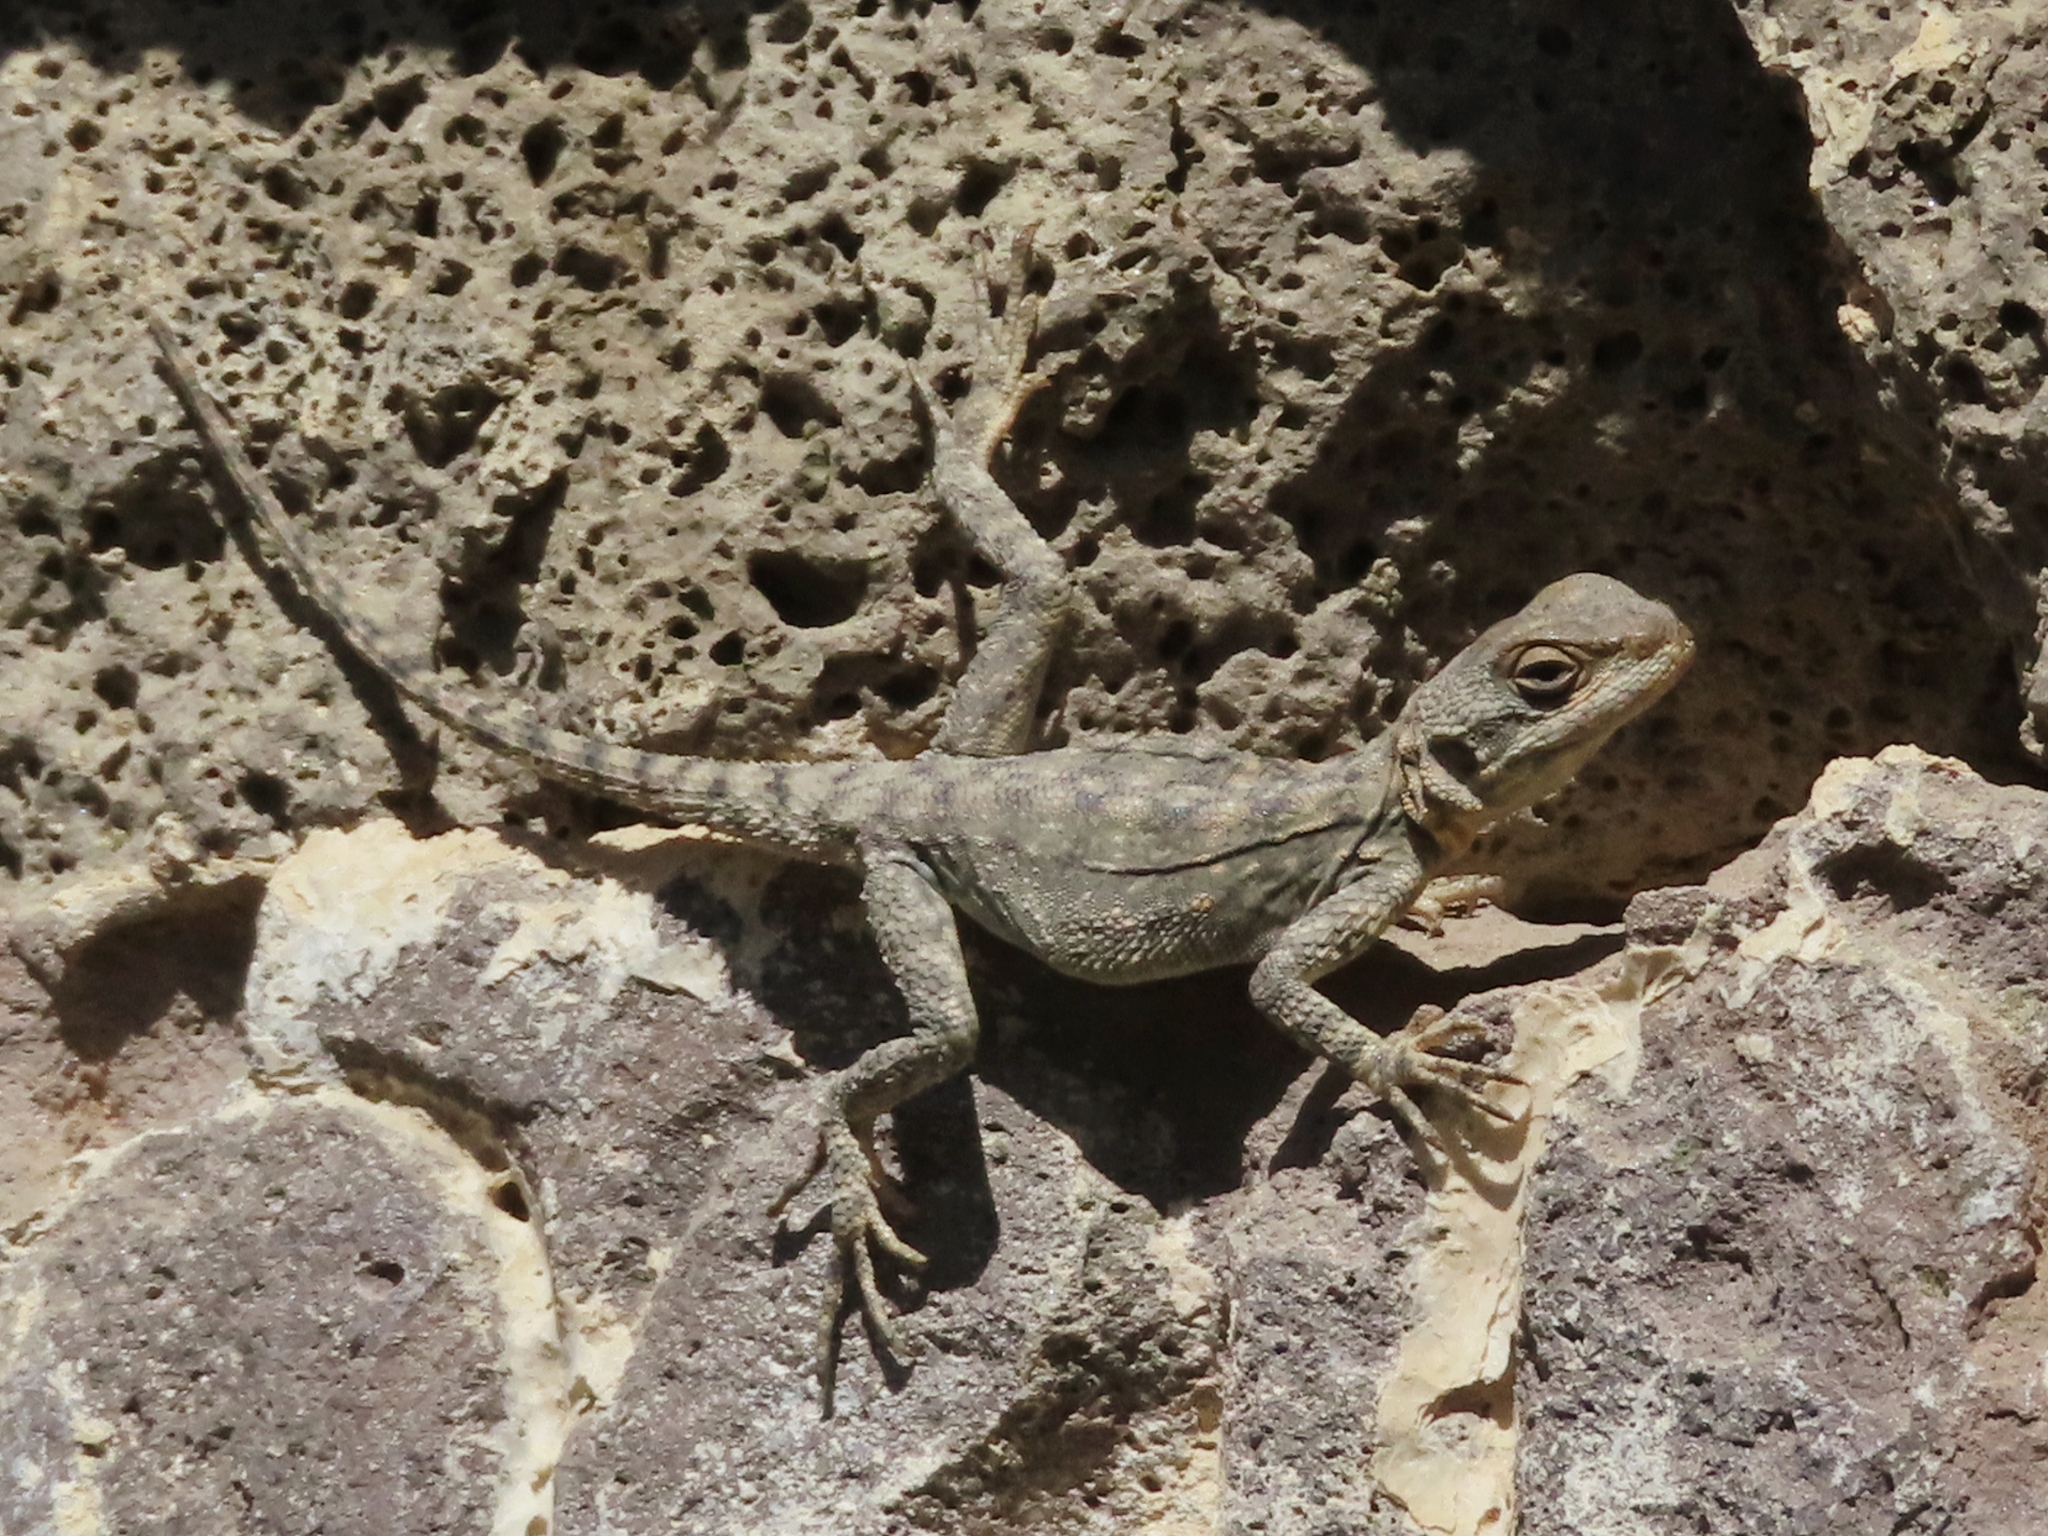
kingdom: Animalia
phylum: Chordata
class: Squamata
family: Agamidae
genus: Paralaudakia
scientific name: Paralaudakia caucasia
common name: Caucasian agama
